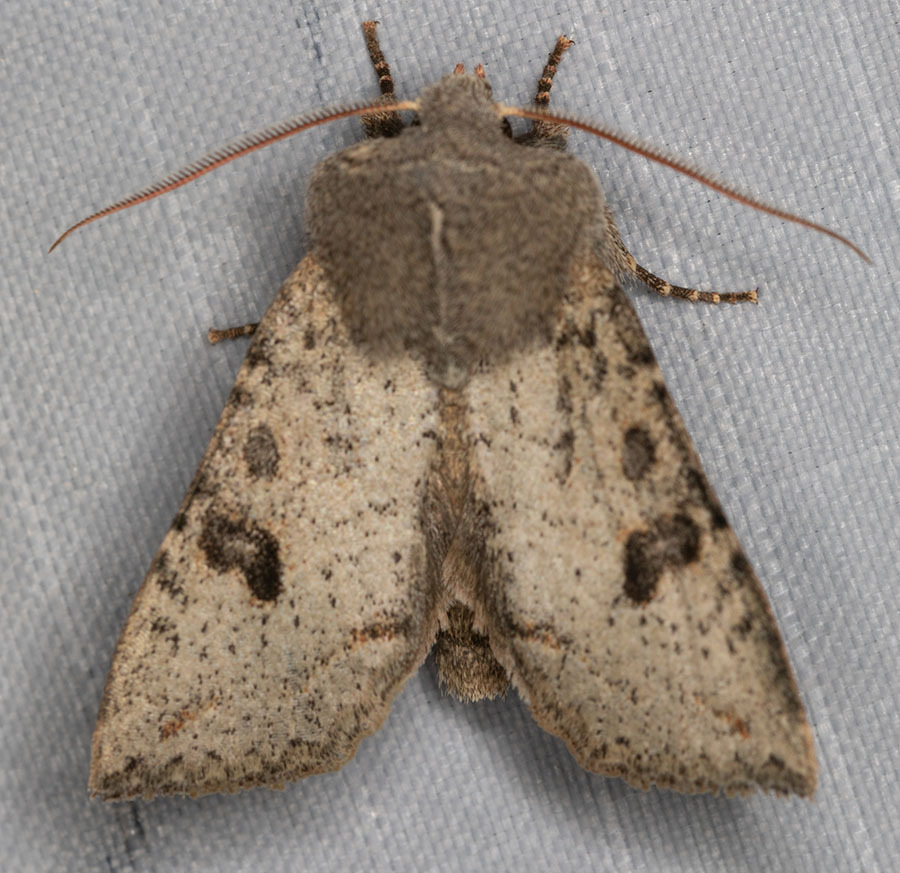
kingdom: Animalia
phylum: Arthropoda
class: Insecta
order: Lepidoptera
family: Noctuidae
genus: Orthosia
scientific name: Orthosia erythrolita
